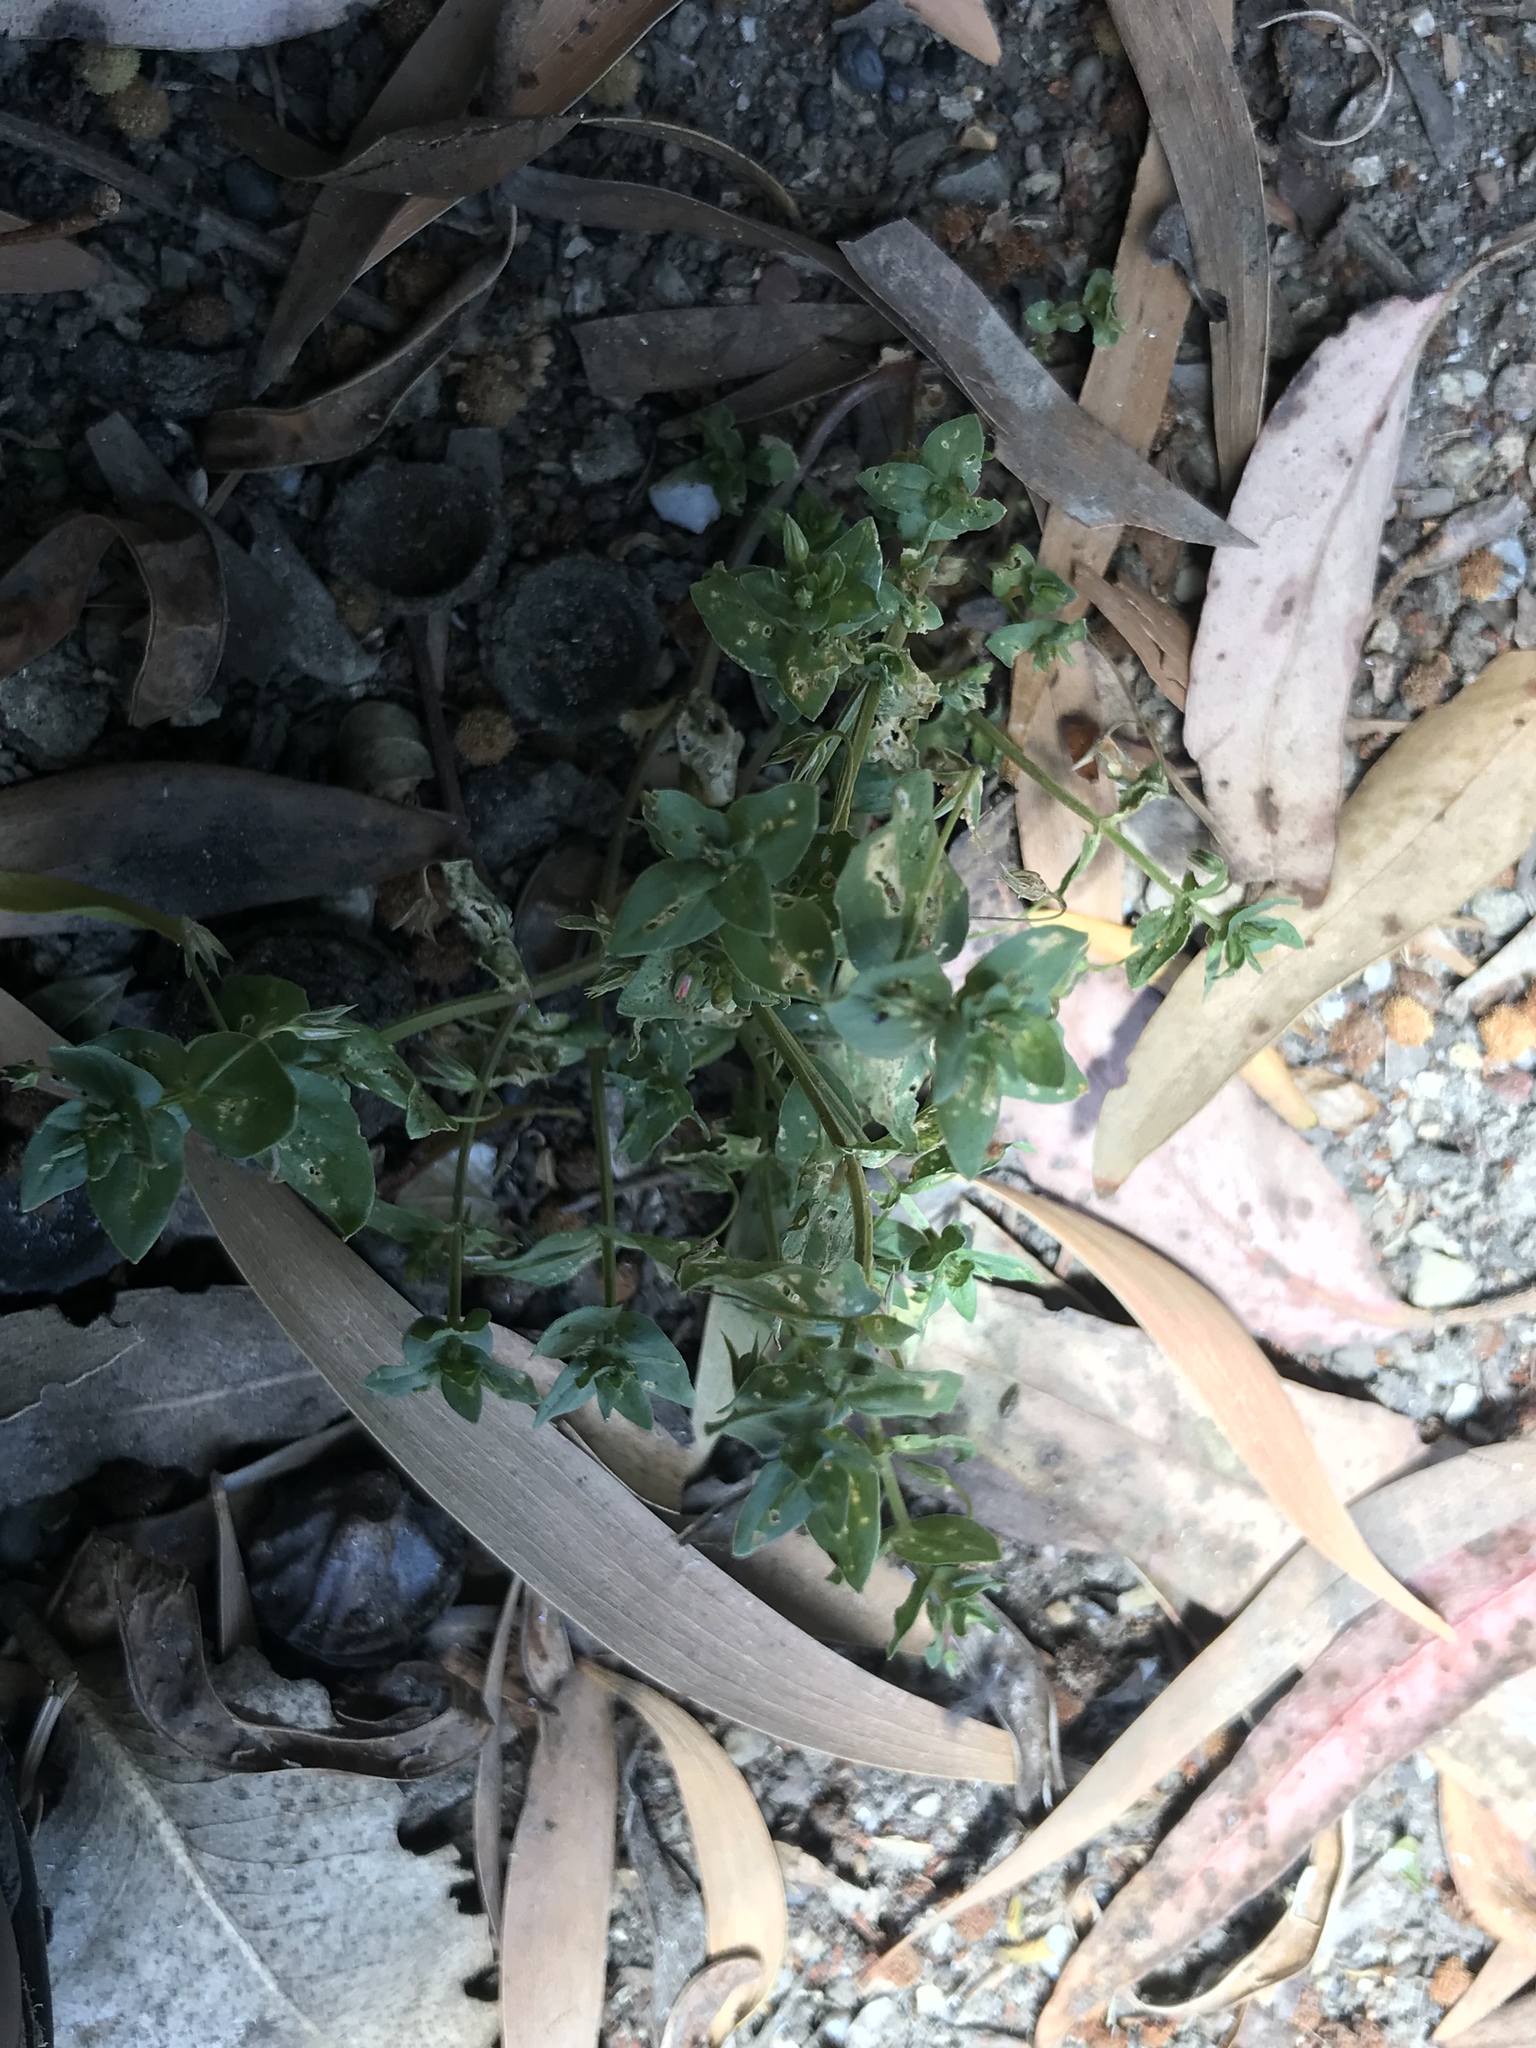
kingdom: Plantae
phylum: Tracheophyta
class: Magnoliopsida
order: Ericales
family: Primulaceae
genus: Lysimachia
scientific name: Lysimachia arvensis
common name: Scarlet pimpernel
